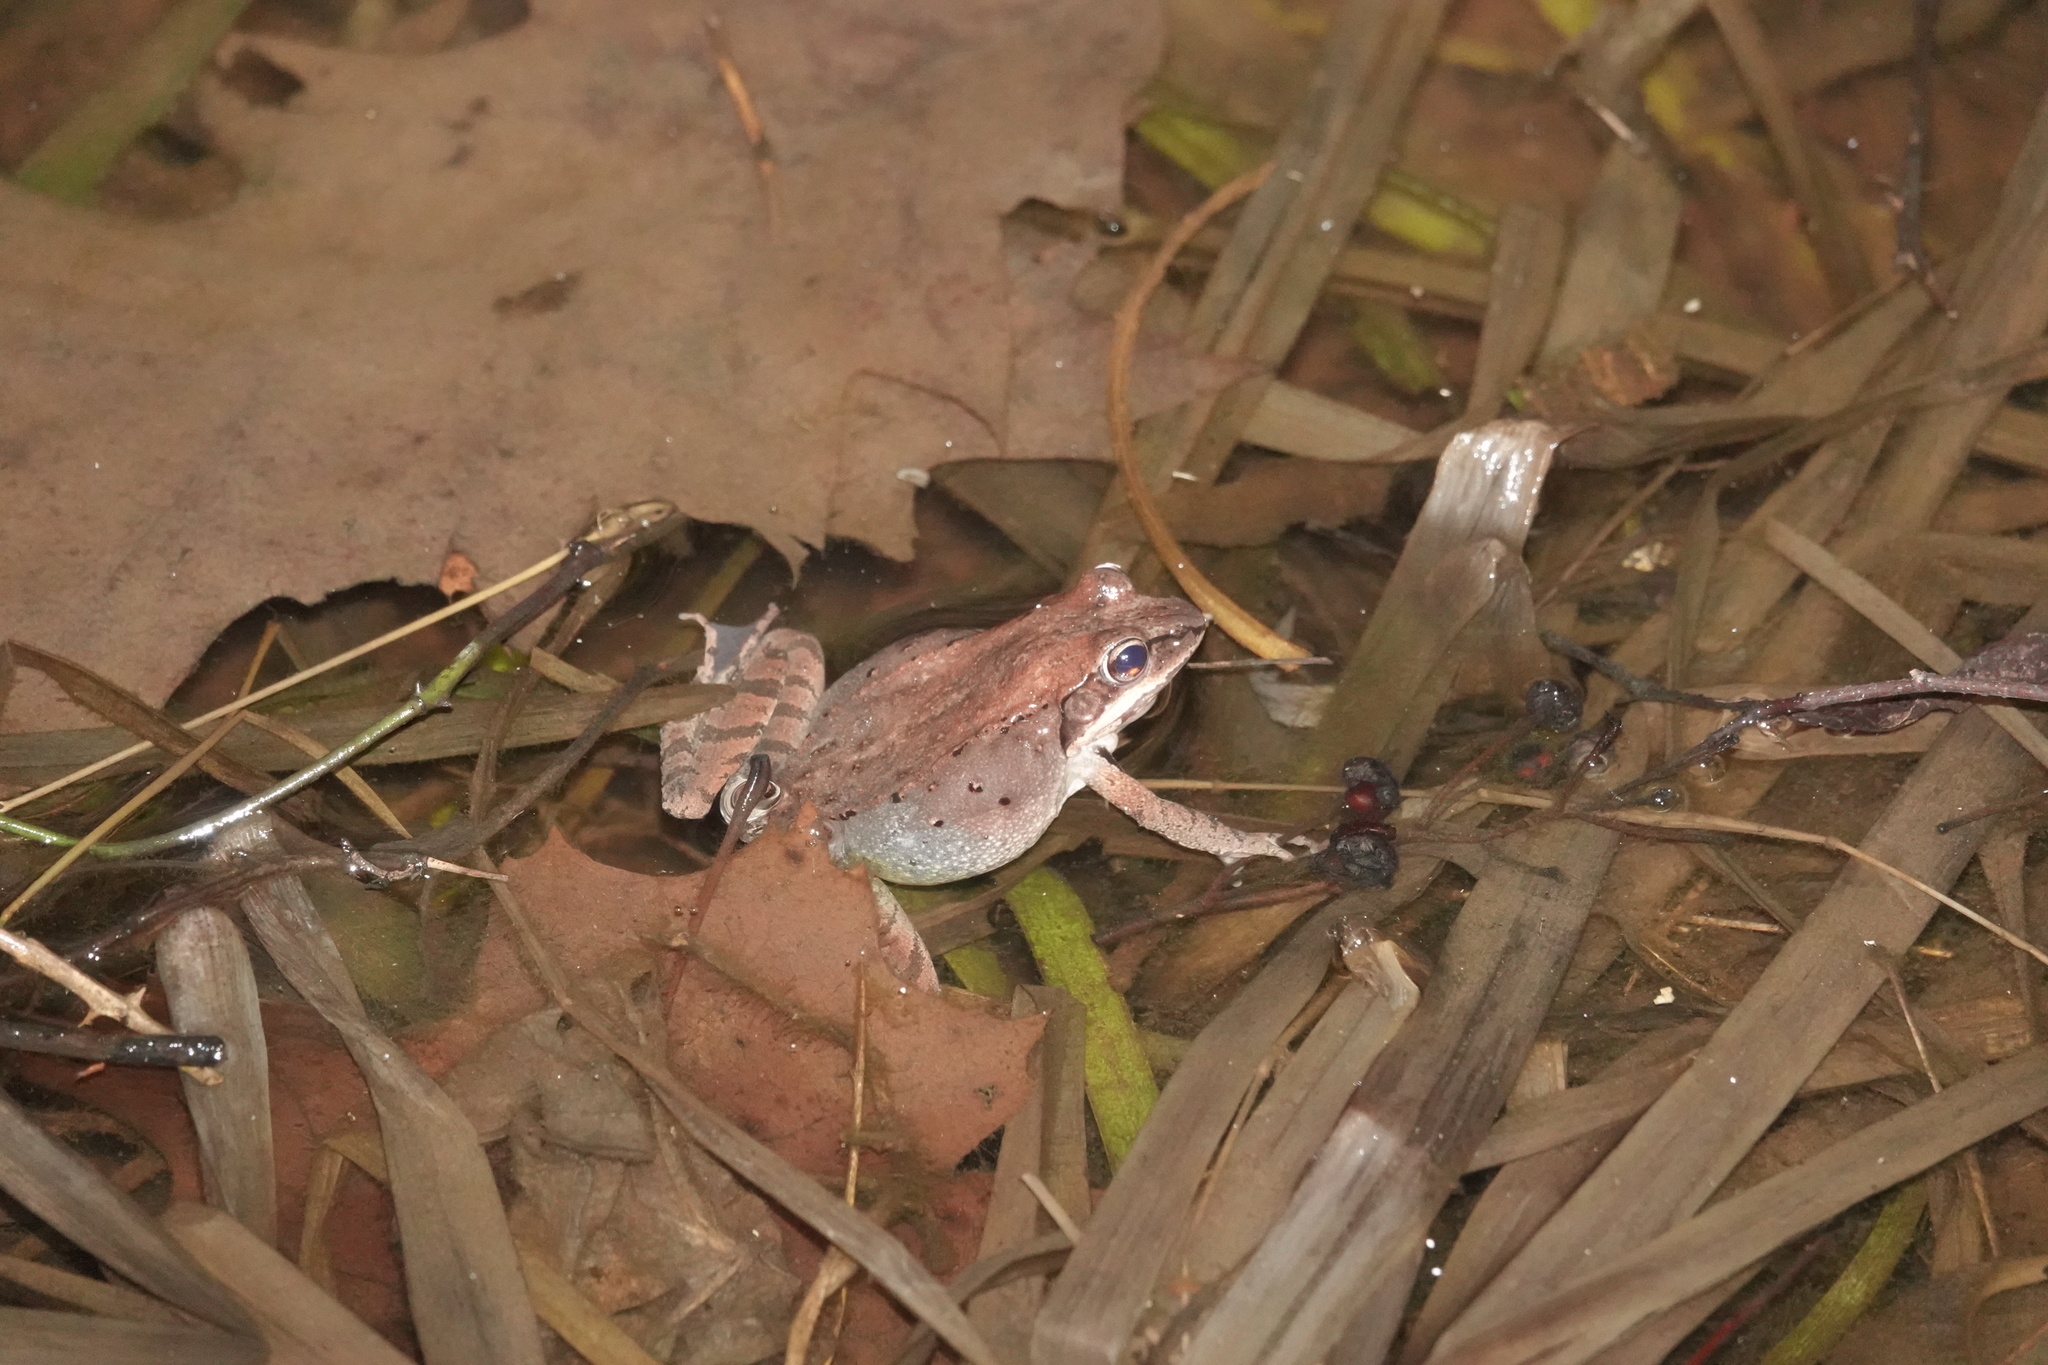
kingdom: Animalia
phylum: Chordata
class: Amphibia
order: Anura
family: Ranidae
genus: Lithobates
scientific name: Lithobates sylvaticus
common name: Wood frog
